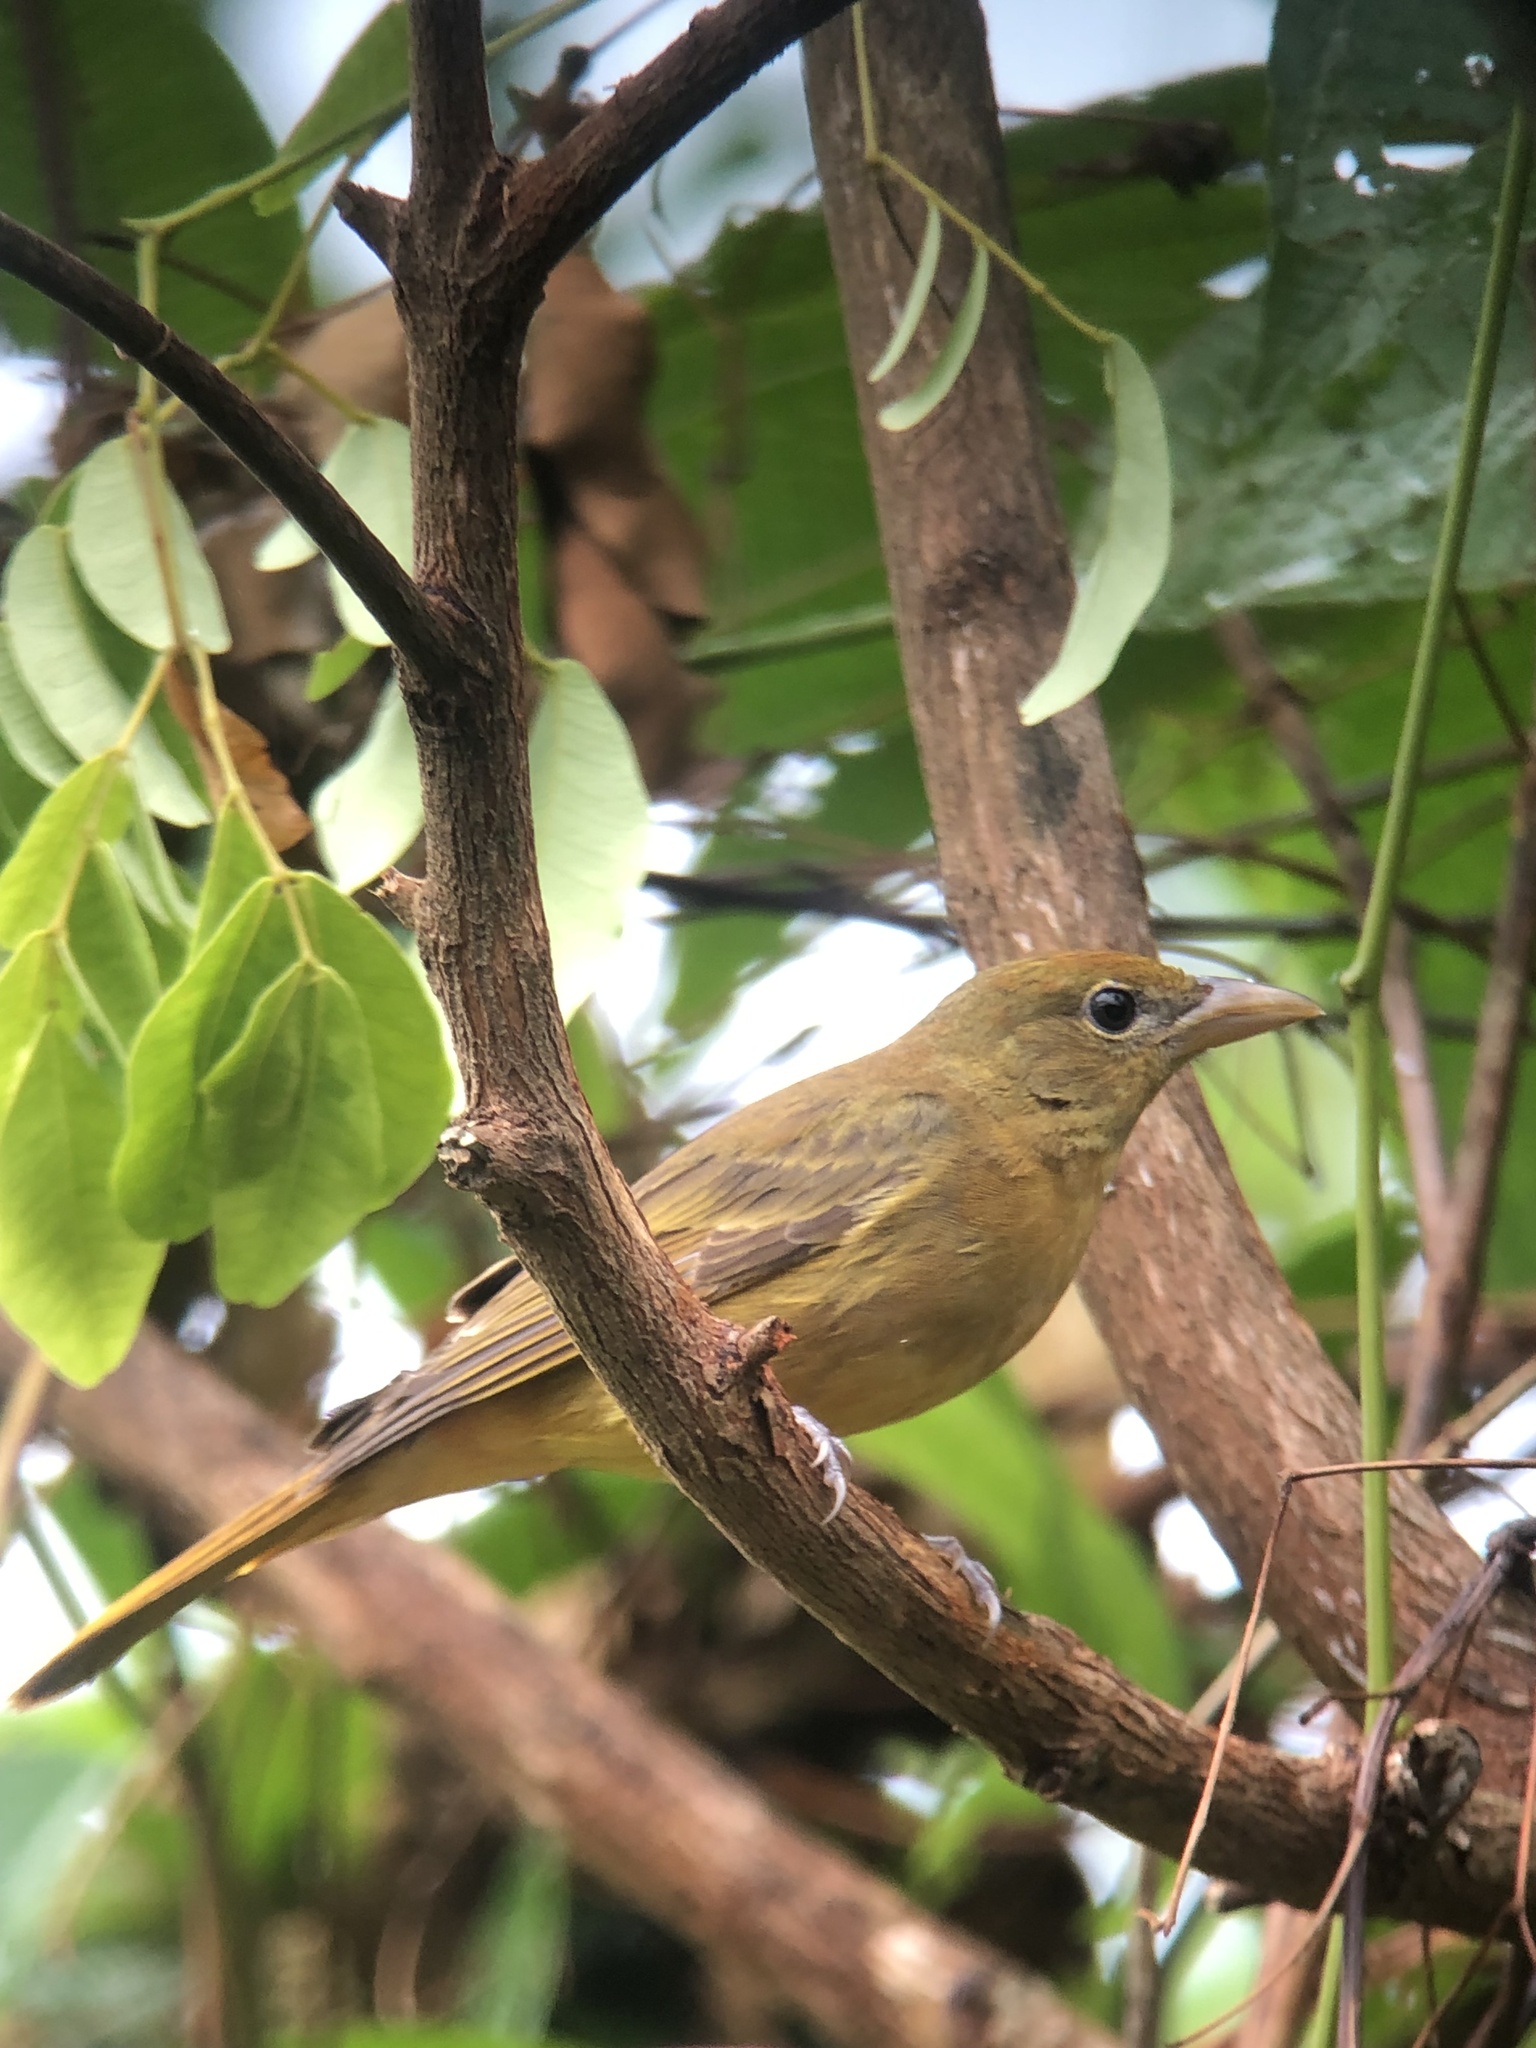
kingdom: Animalia
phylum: Chordata
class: Aves
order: Passeriformes
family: Cardinalidae
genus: Piranga
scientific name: Piranga rubra
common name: Summer tanager
